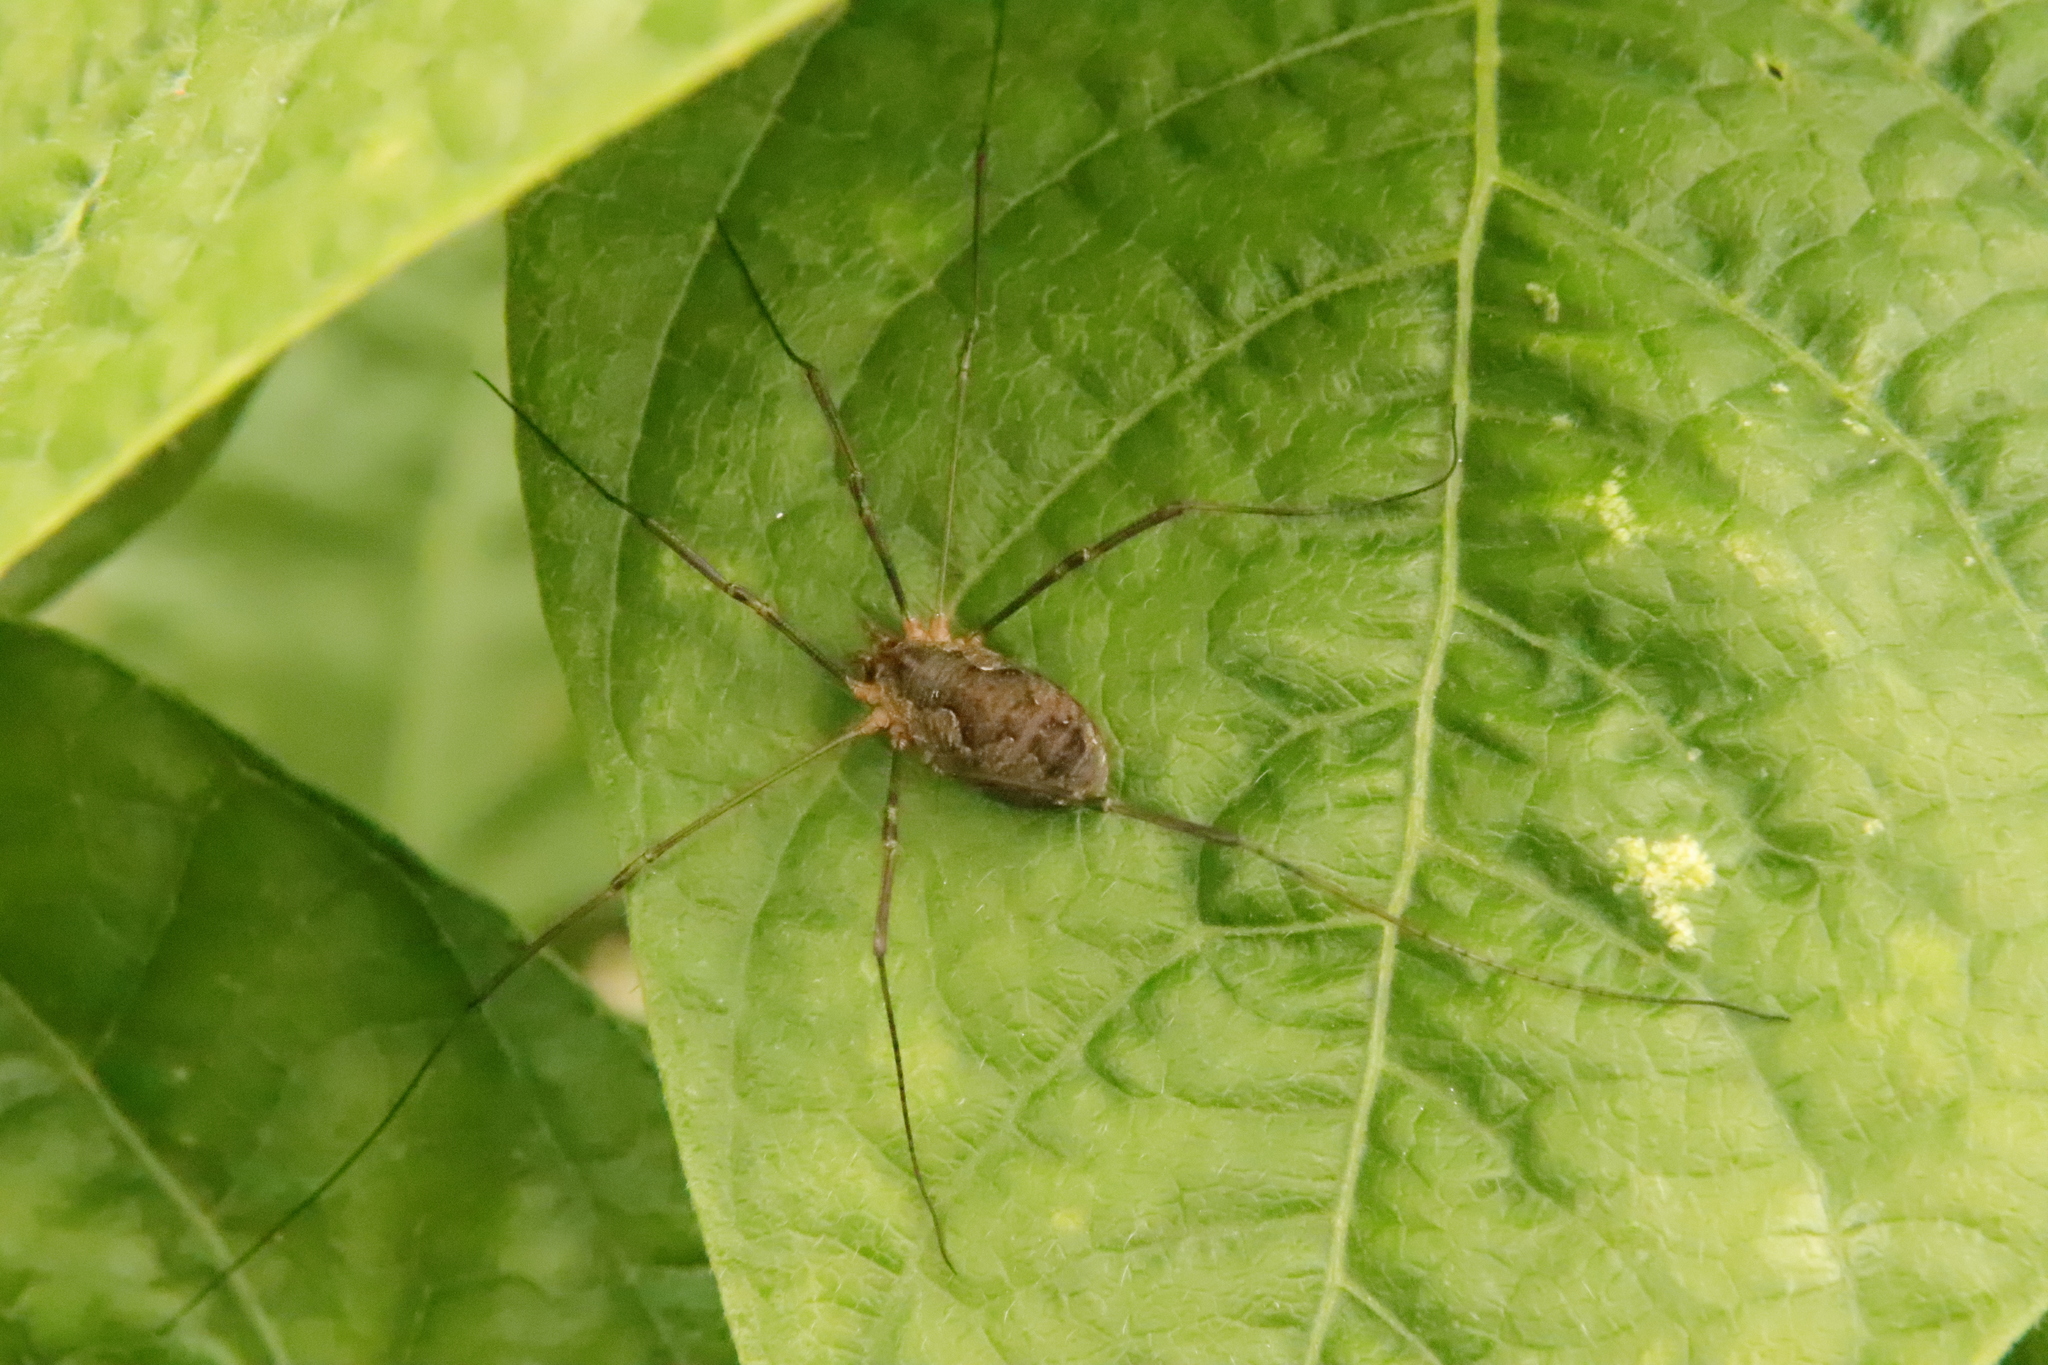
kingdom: Animalia
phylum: Arthropoda
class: Arachnida
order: Opiliones
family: Phalangiidae
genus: Phalangium
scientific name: Phalangium opilio
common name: Daddy longleg
